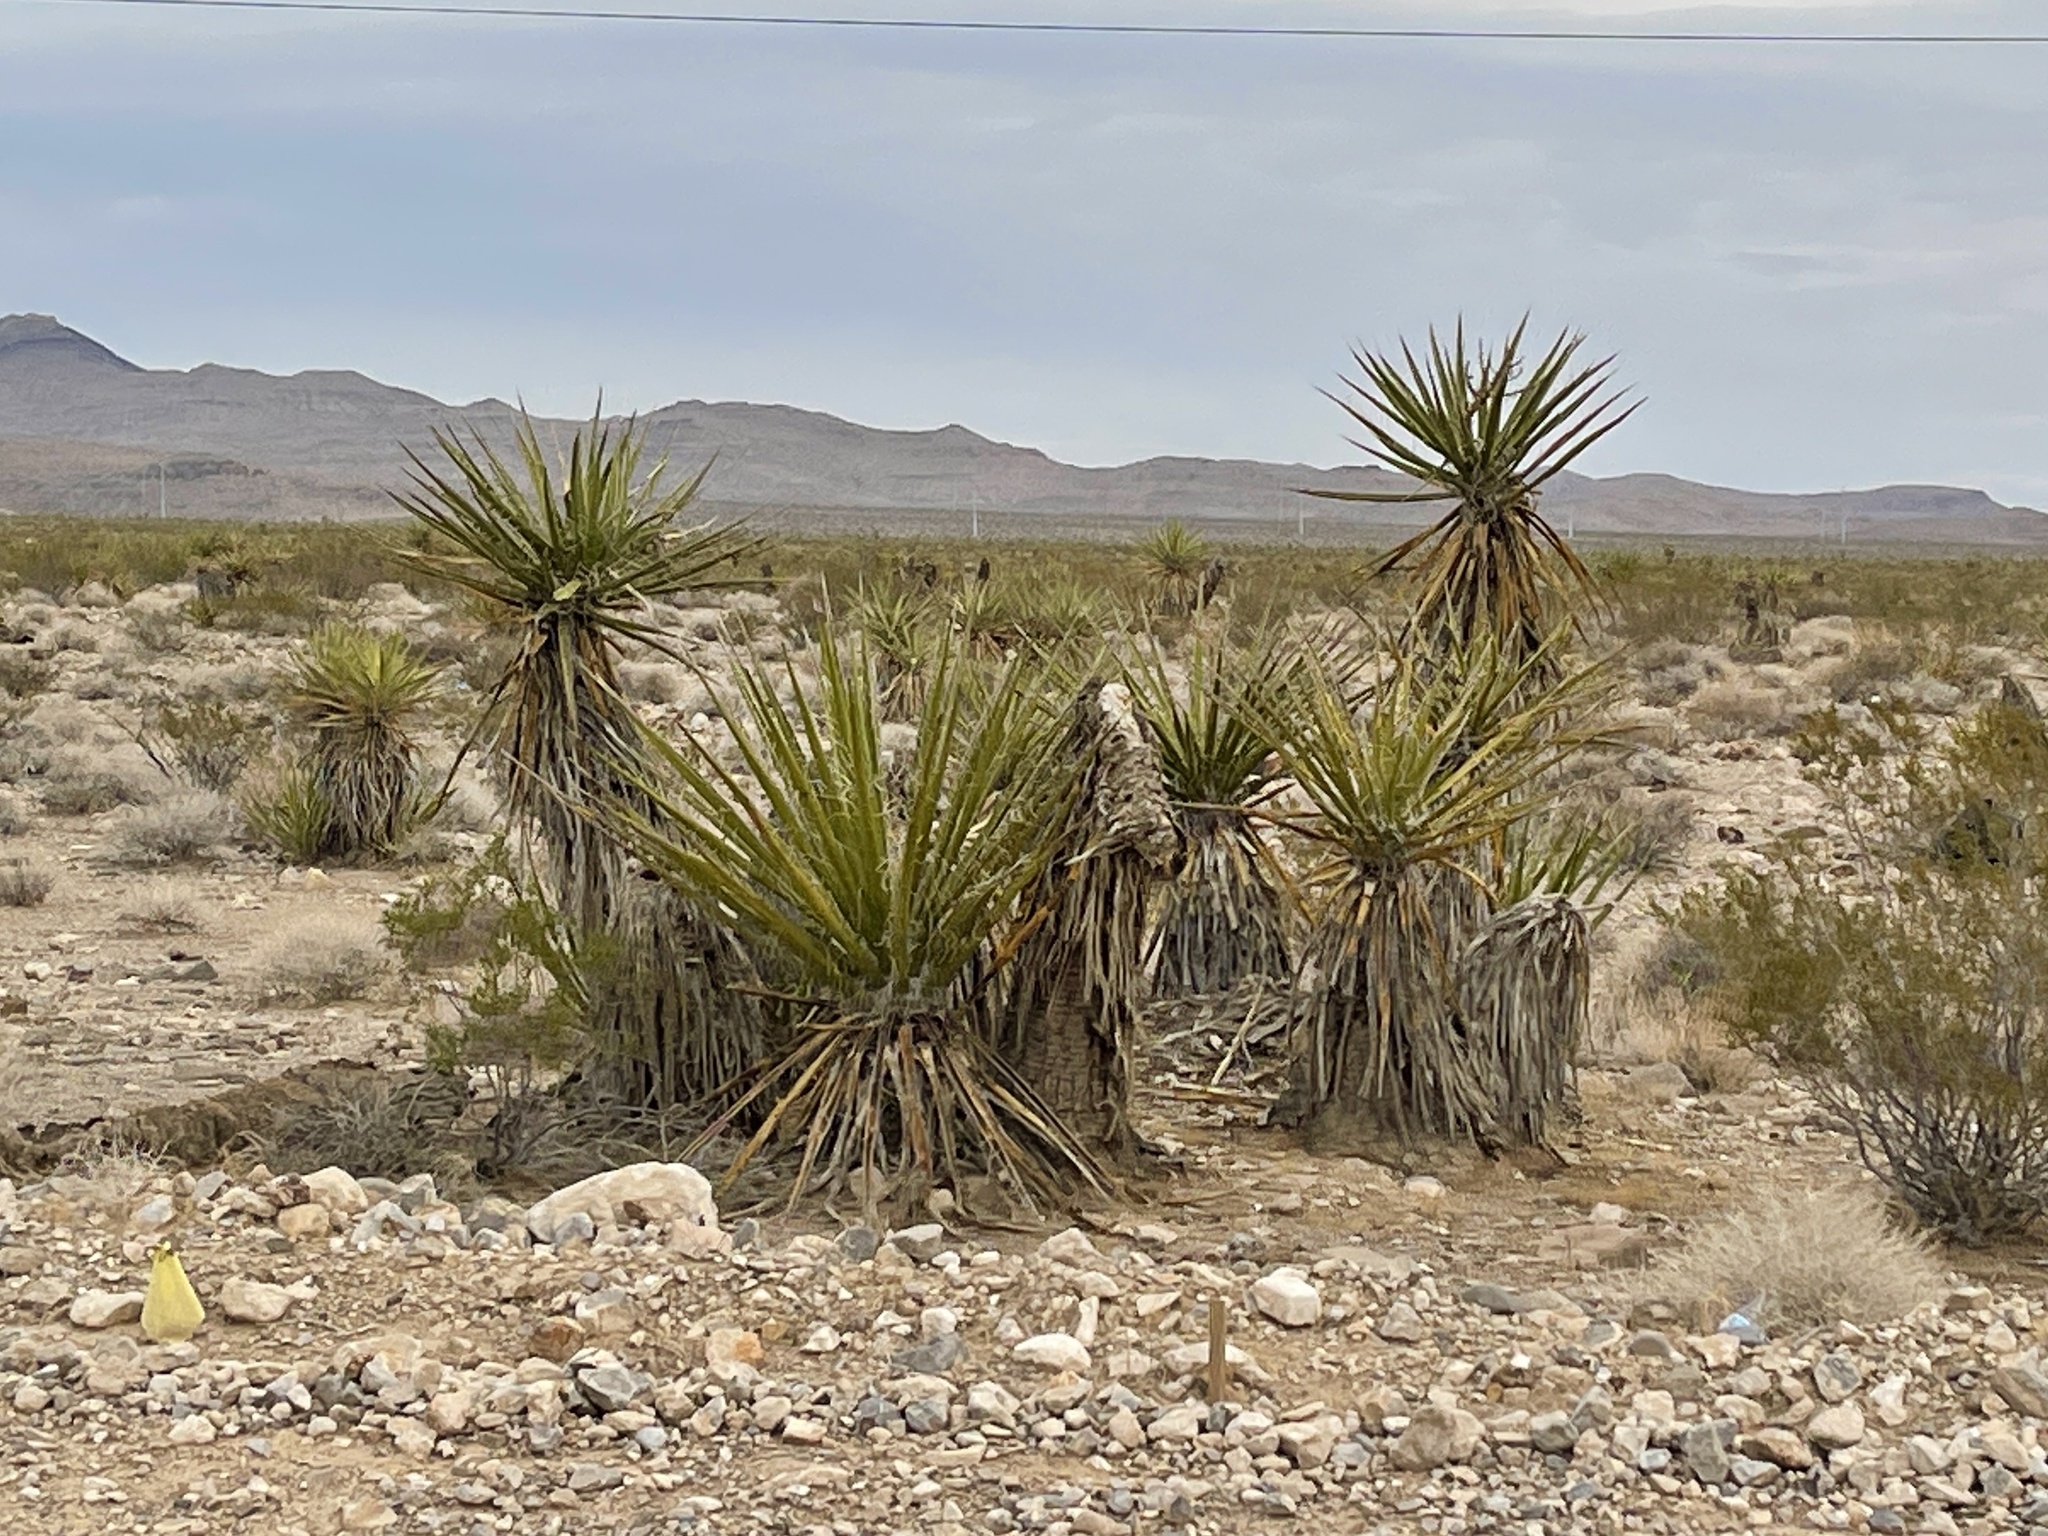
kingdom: Plantae
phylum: Tracheophyta
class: Liliopsida
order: Asparagales
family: Asparagaceae
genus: Yucca
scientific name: Yucca schidigera
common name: Mojave yucca
